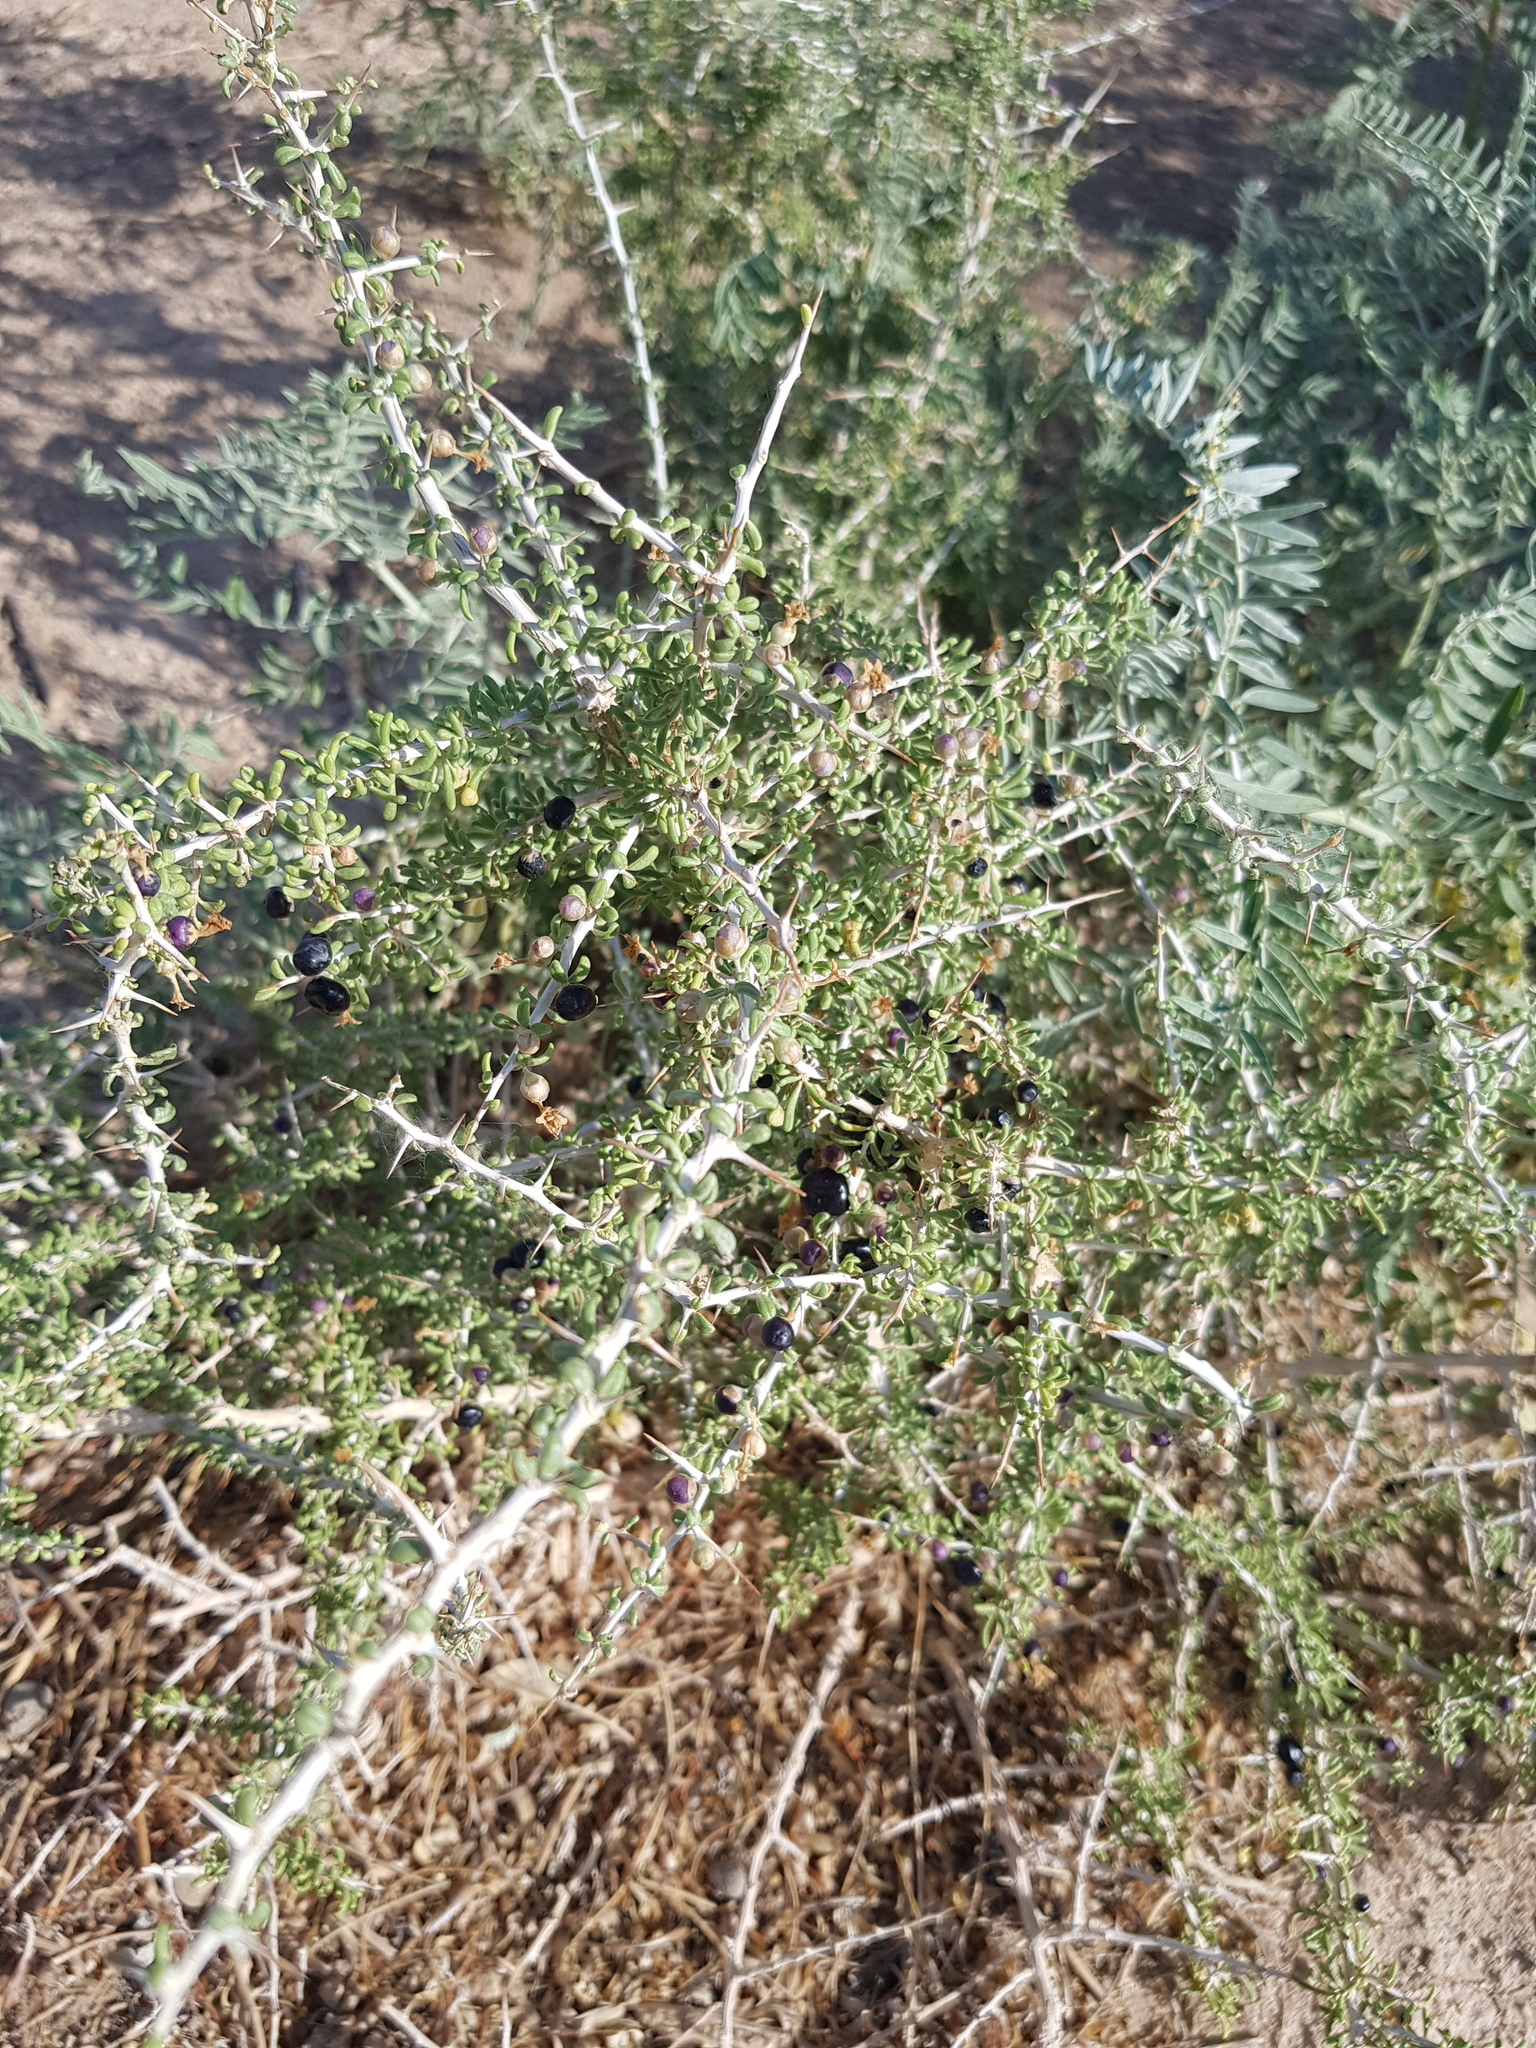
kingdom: Plantae
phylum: Tracheophyta
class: Magnoliopsida
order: Sapindales
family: Nitrariaceae
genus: Nitraria
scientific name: Nitraria sphaerocarpa
